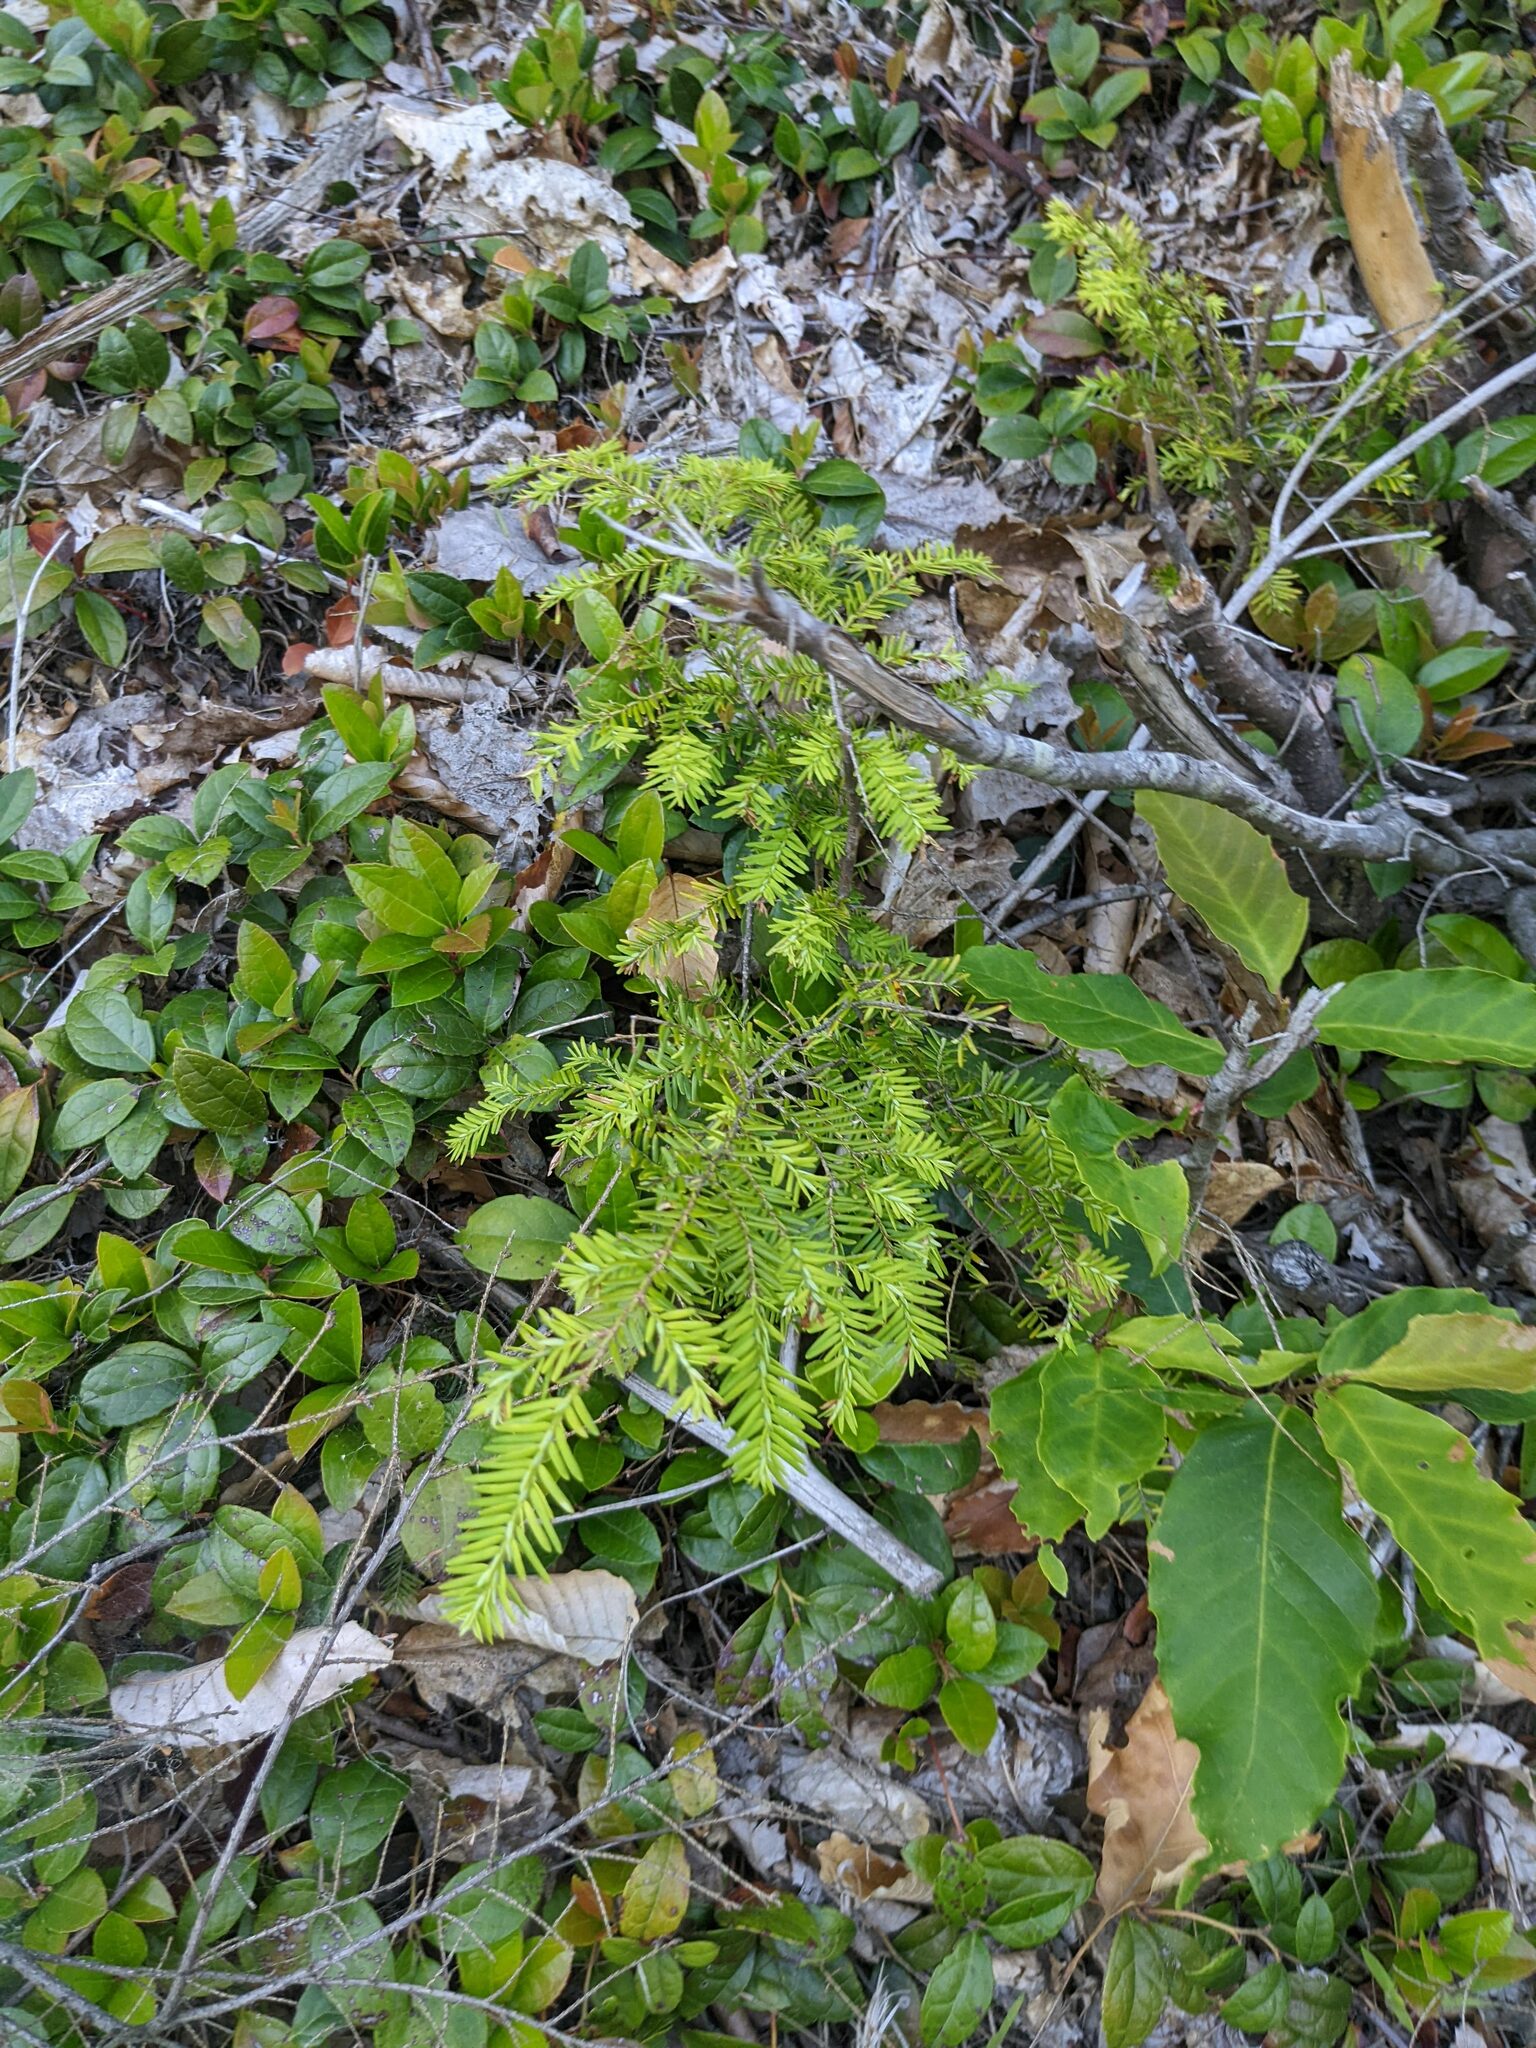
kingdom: Plantae
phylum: Tracheophyta
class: Pinopsida
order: Pinales
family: Pinaceae
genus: Tsuga
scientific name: Tsuga canadensis
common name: Eastern hemlock
